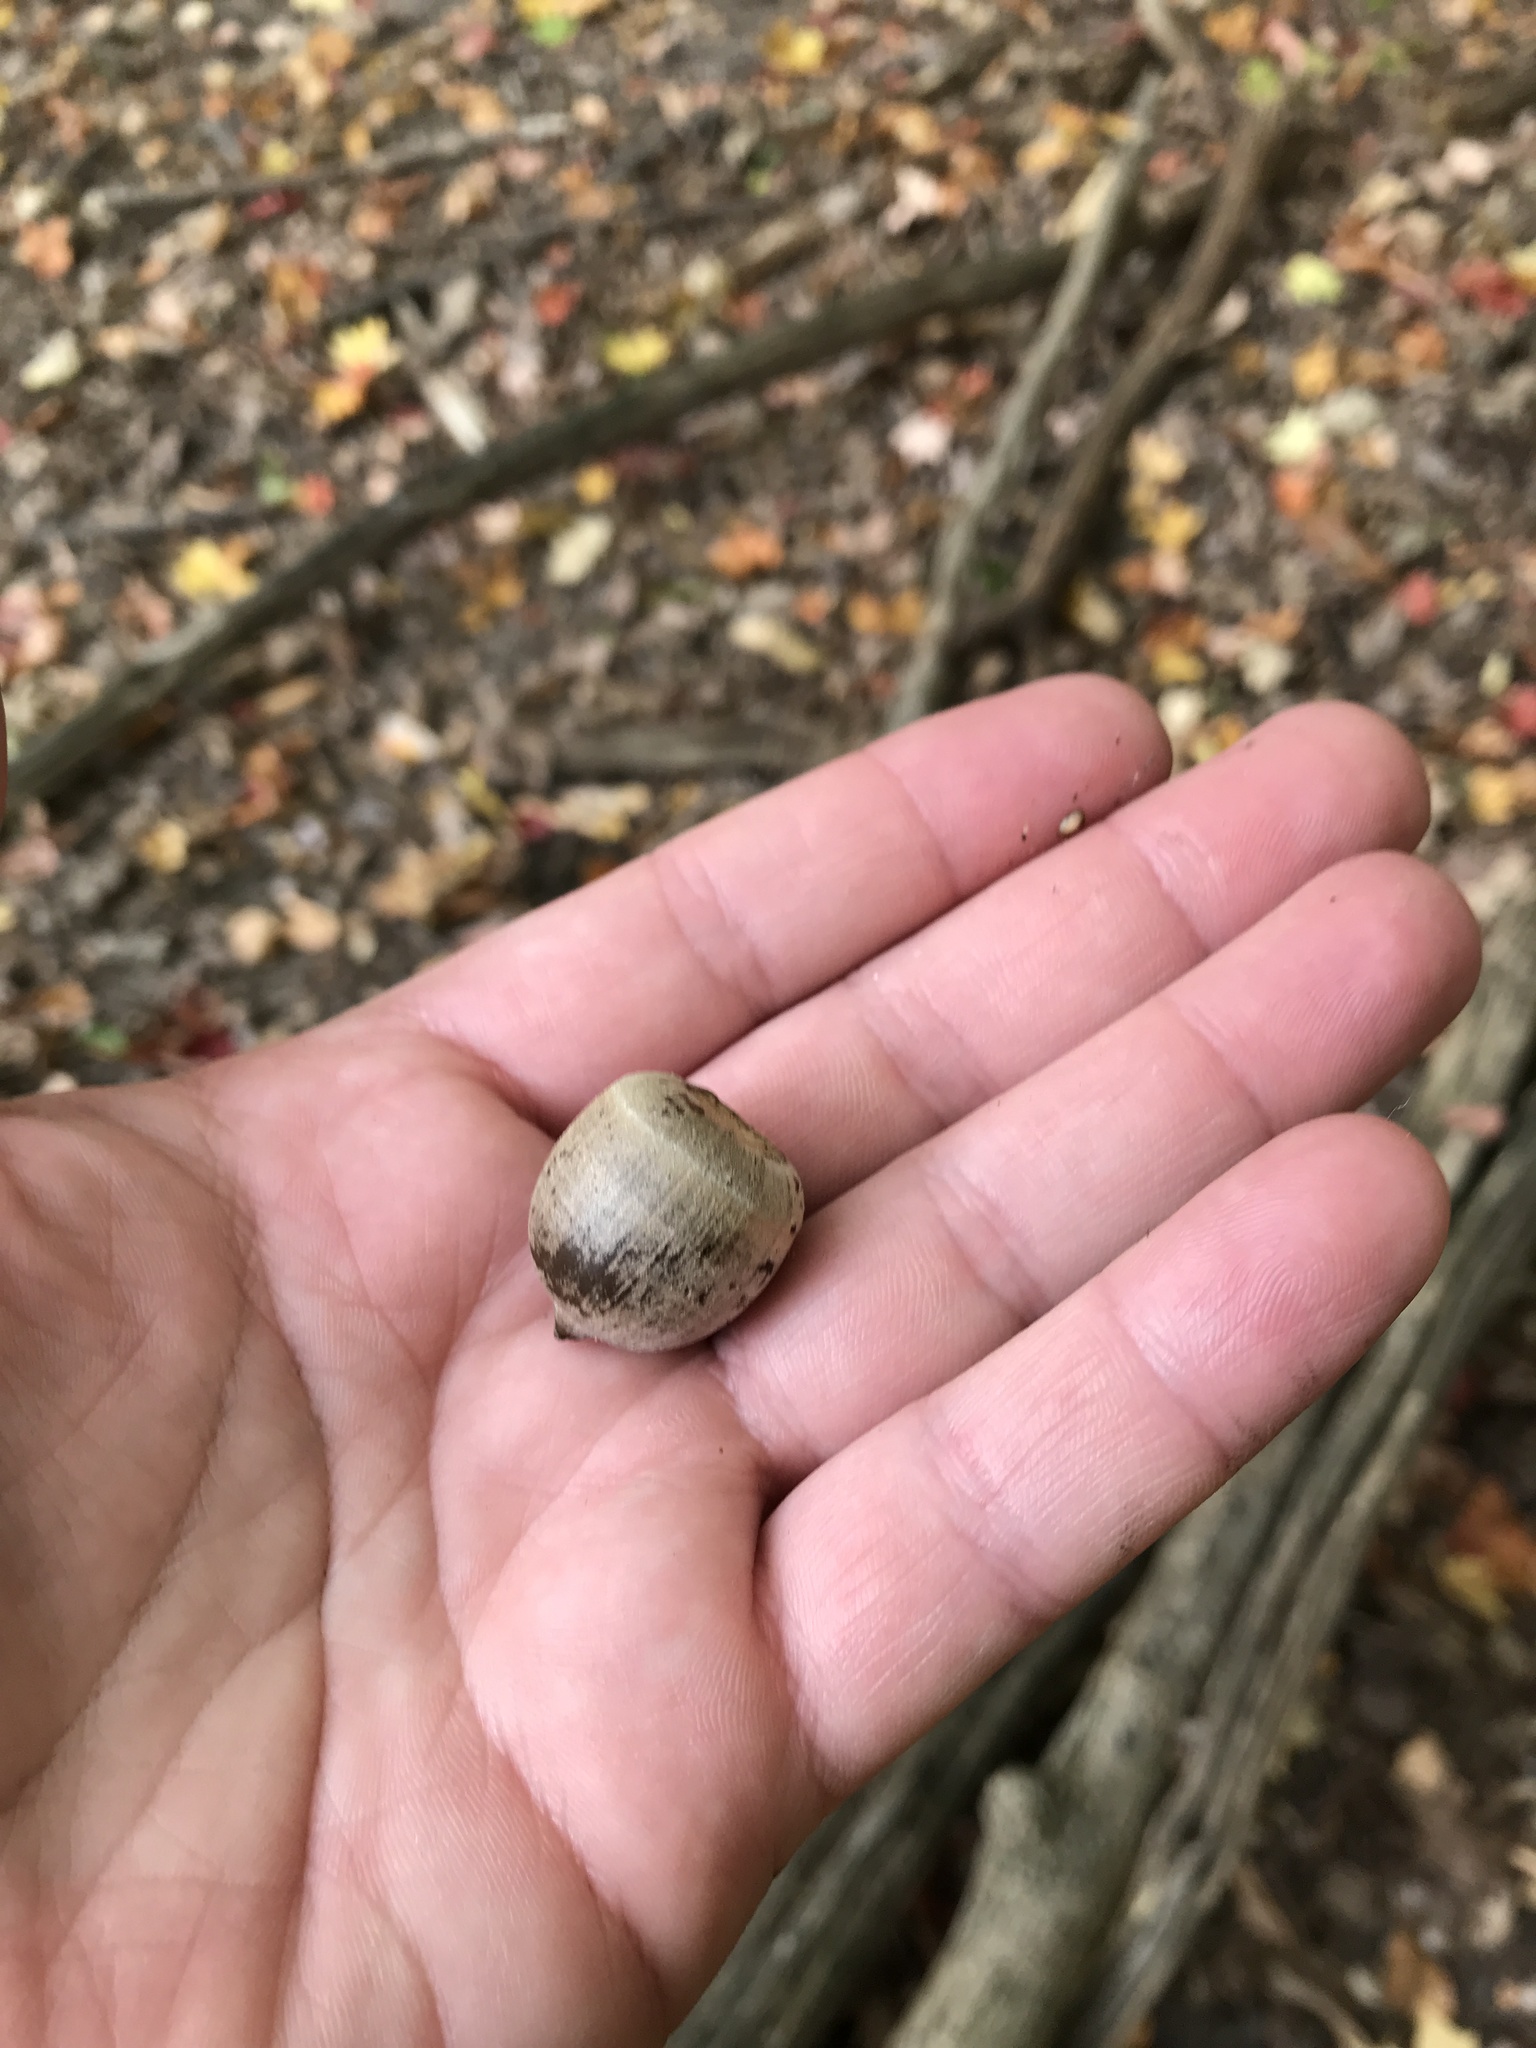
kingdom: Plantae
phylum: Tracheophyta
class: Magnoliopsida
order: Fagales
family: Fagaceae
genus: Quercus
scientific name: Quercus rubra
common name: Red oak
